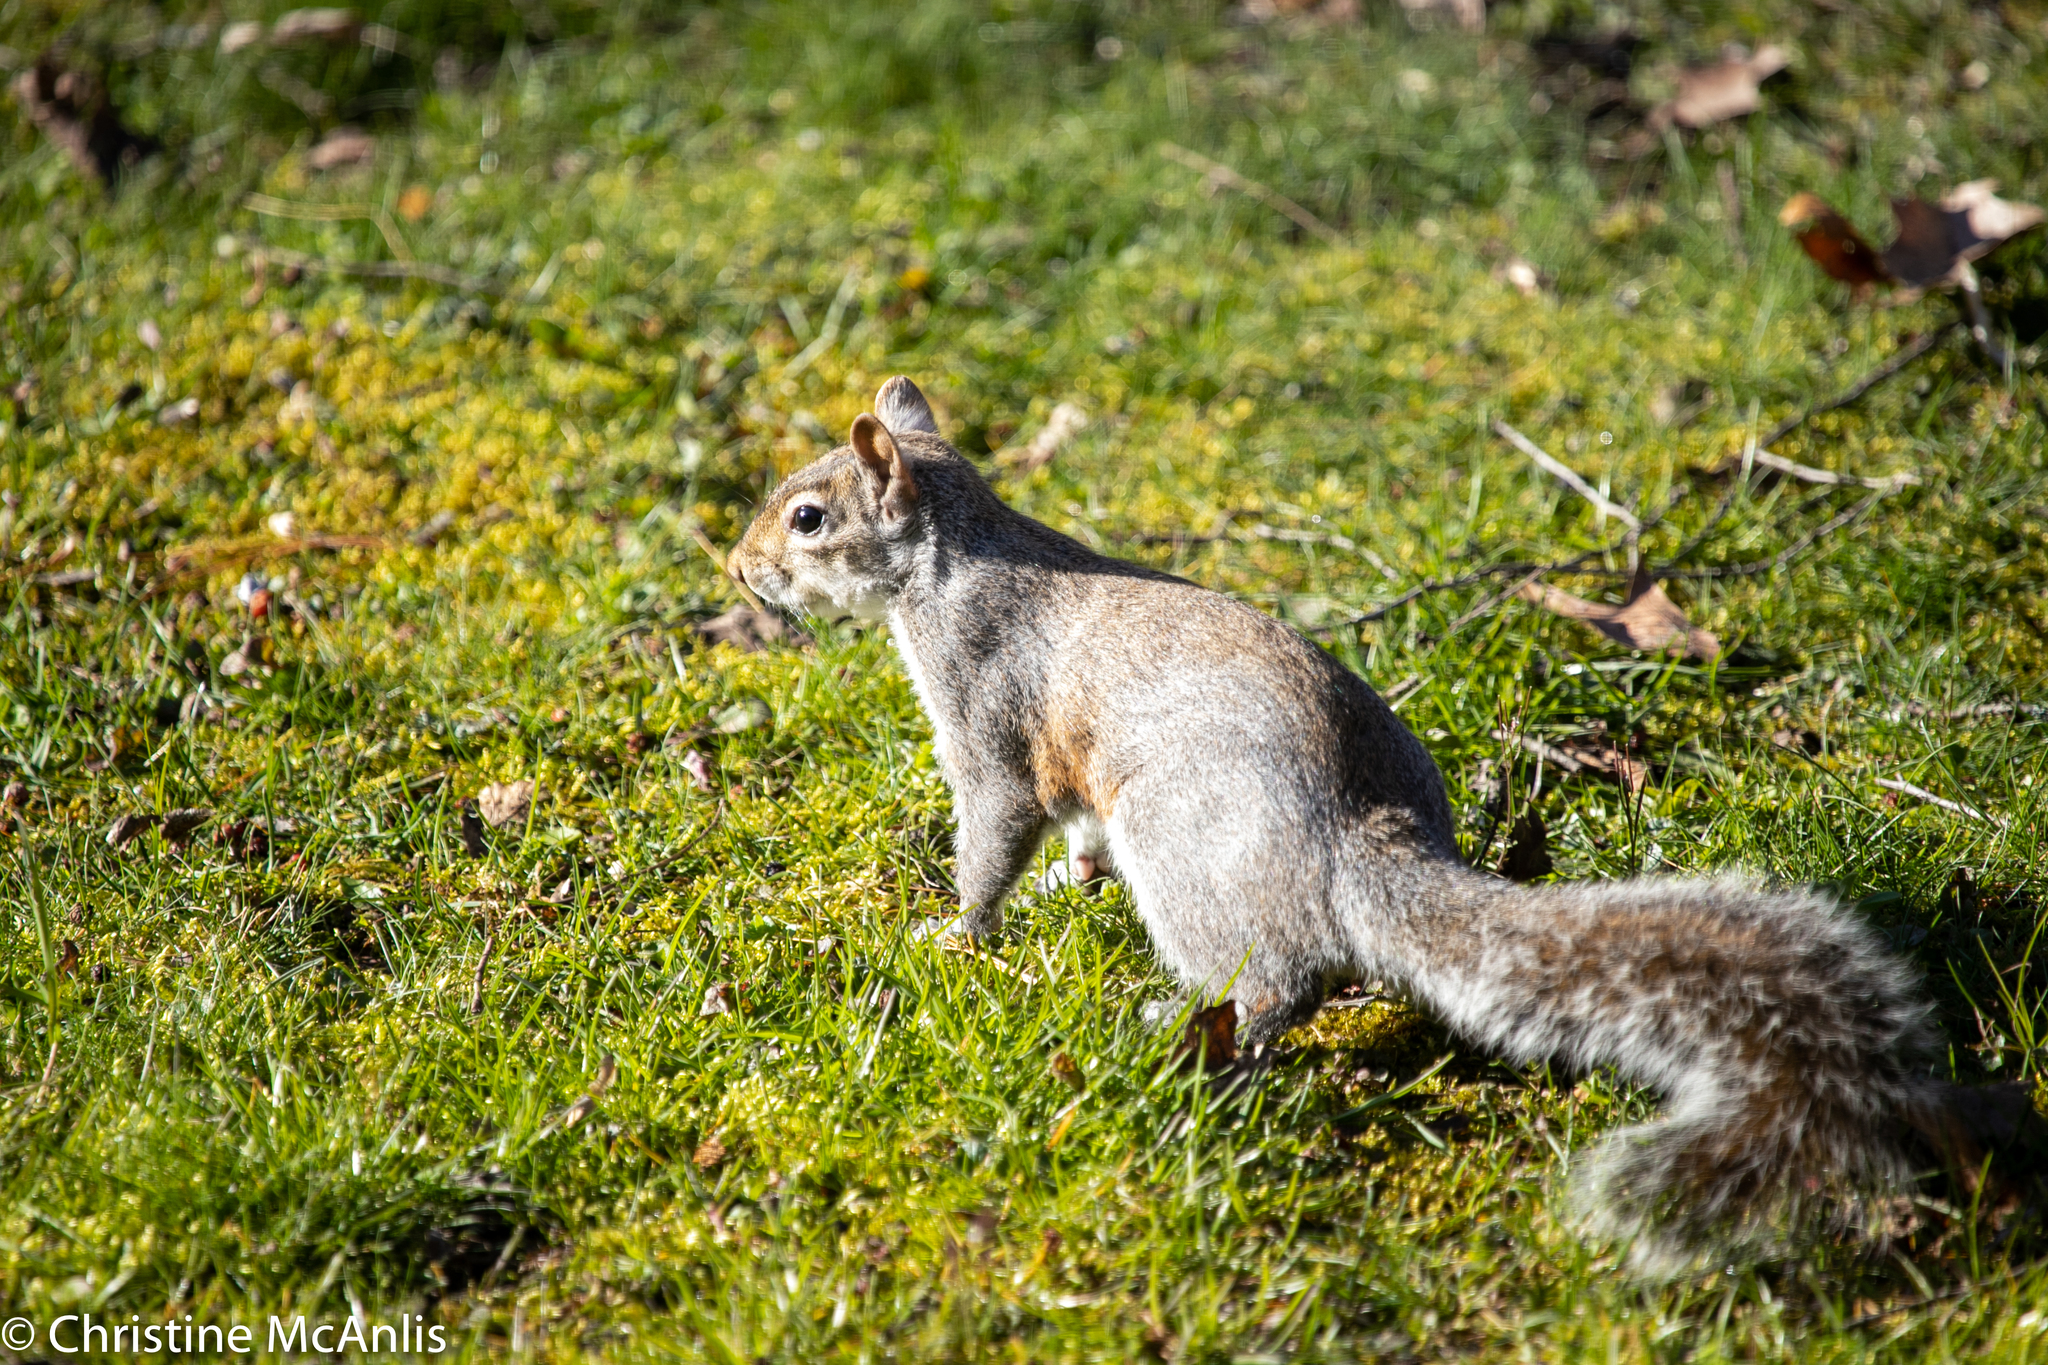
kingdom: Animalia
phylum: Chordata
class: Mammalia
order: Rodentia
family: Sciuridae
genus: Sciurus
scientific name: Sciurus carolinensis
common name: Eastern gray squirrel
